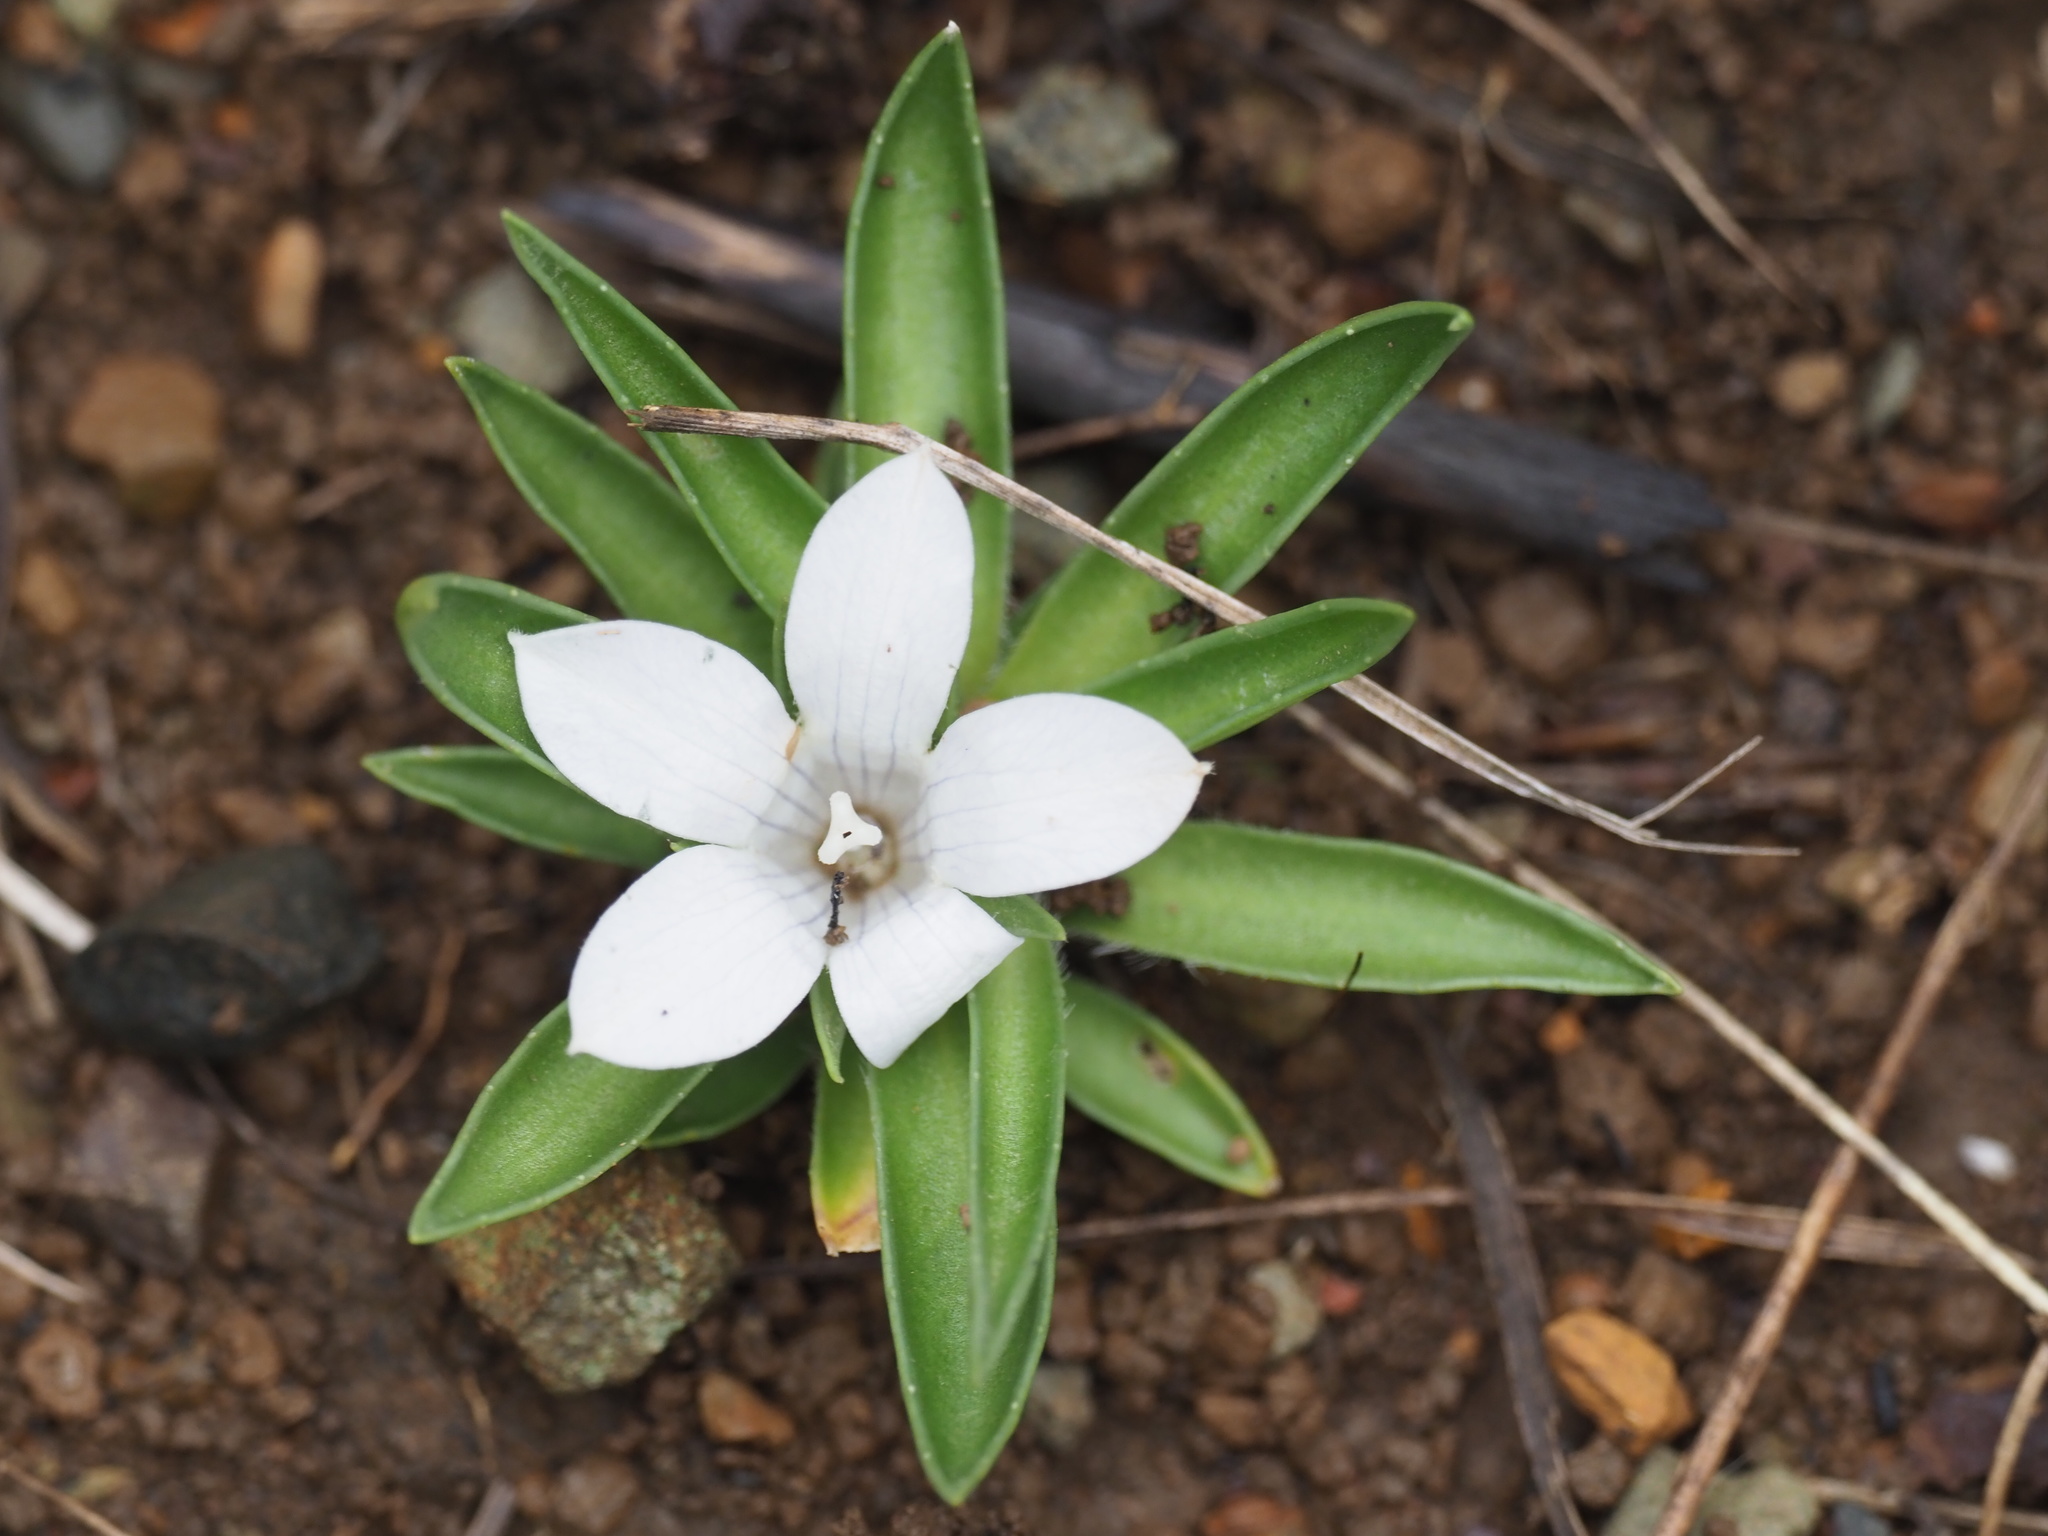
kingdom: Plantae
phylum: Tracheophyta
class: Magnoliopsida
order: Asterales
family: Campanulaceae
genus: Craterocapsa
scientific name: Craterocapsa tarsodes
